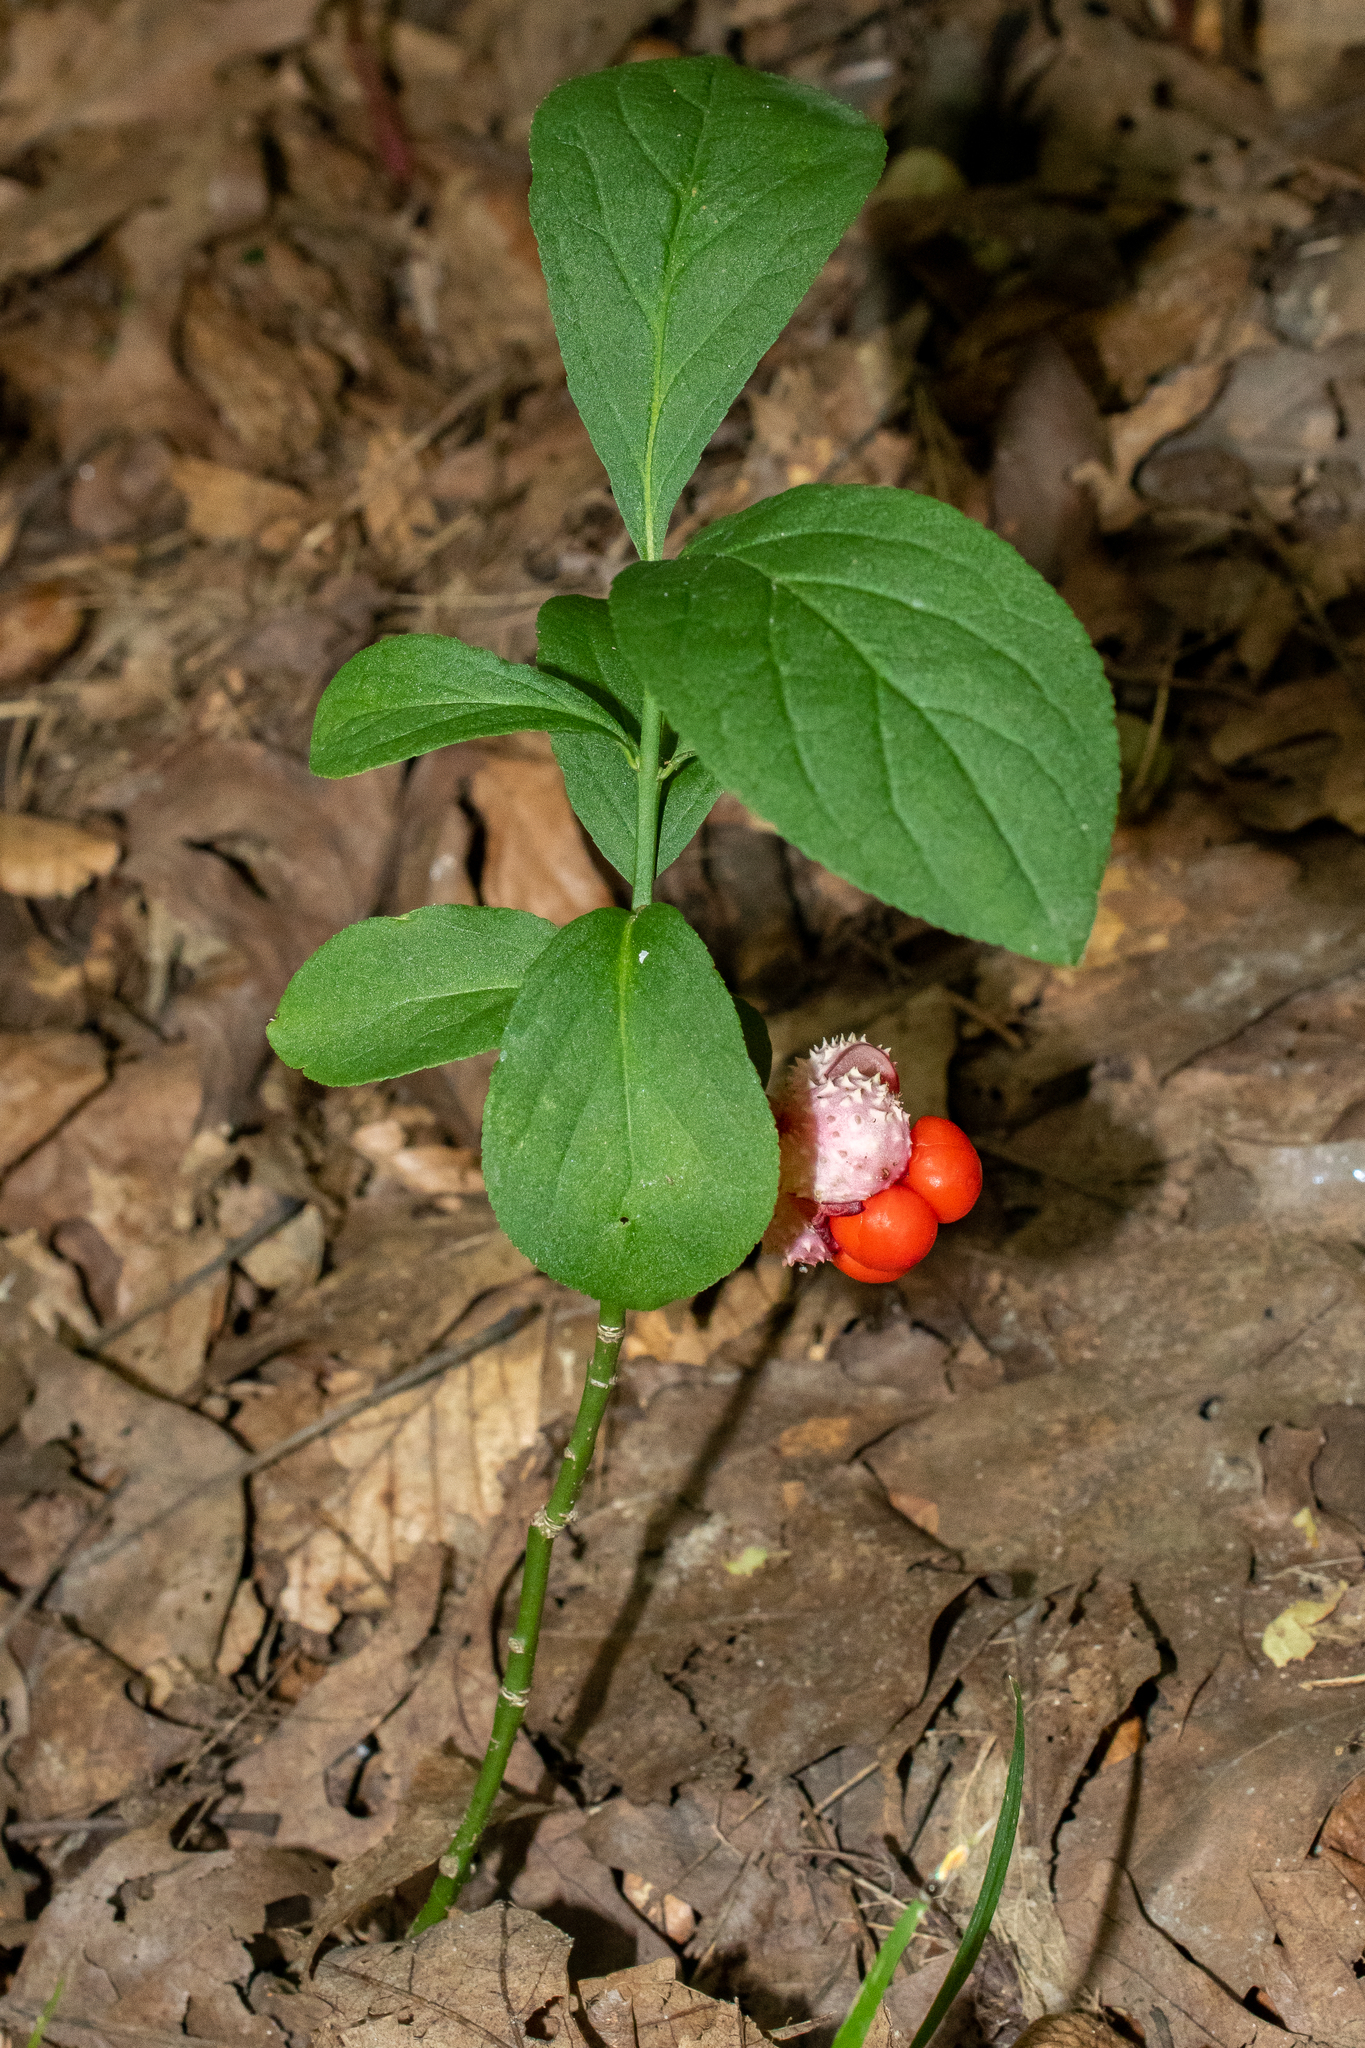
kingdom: Plantae
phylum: Tracheophyta
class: Magnoliopsida
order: Celastrales
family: Celastraceae
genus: Euonymus
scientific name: Euonymus obovatus
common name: Running strawberry-bush
